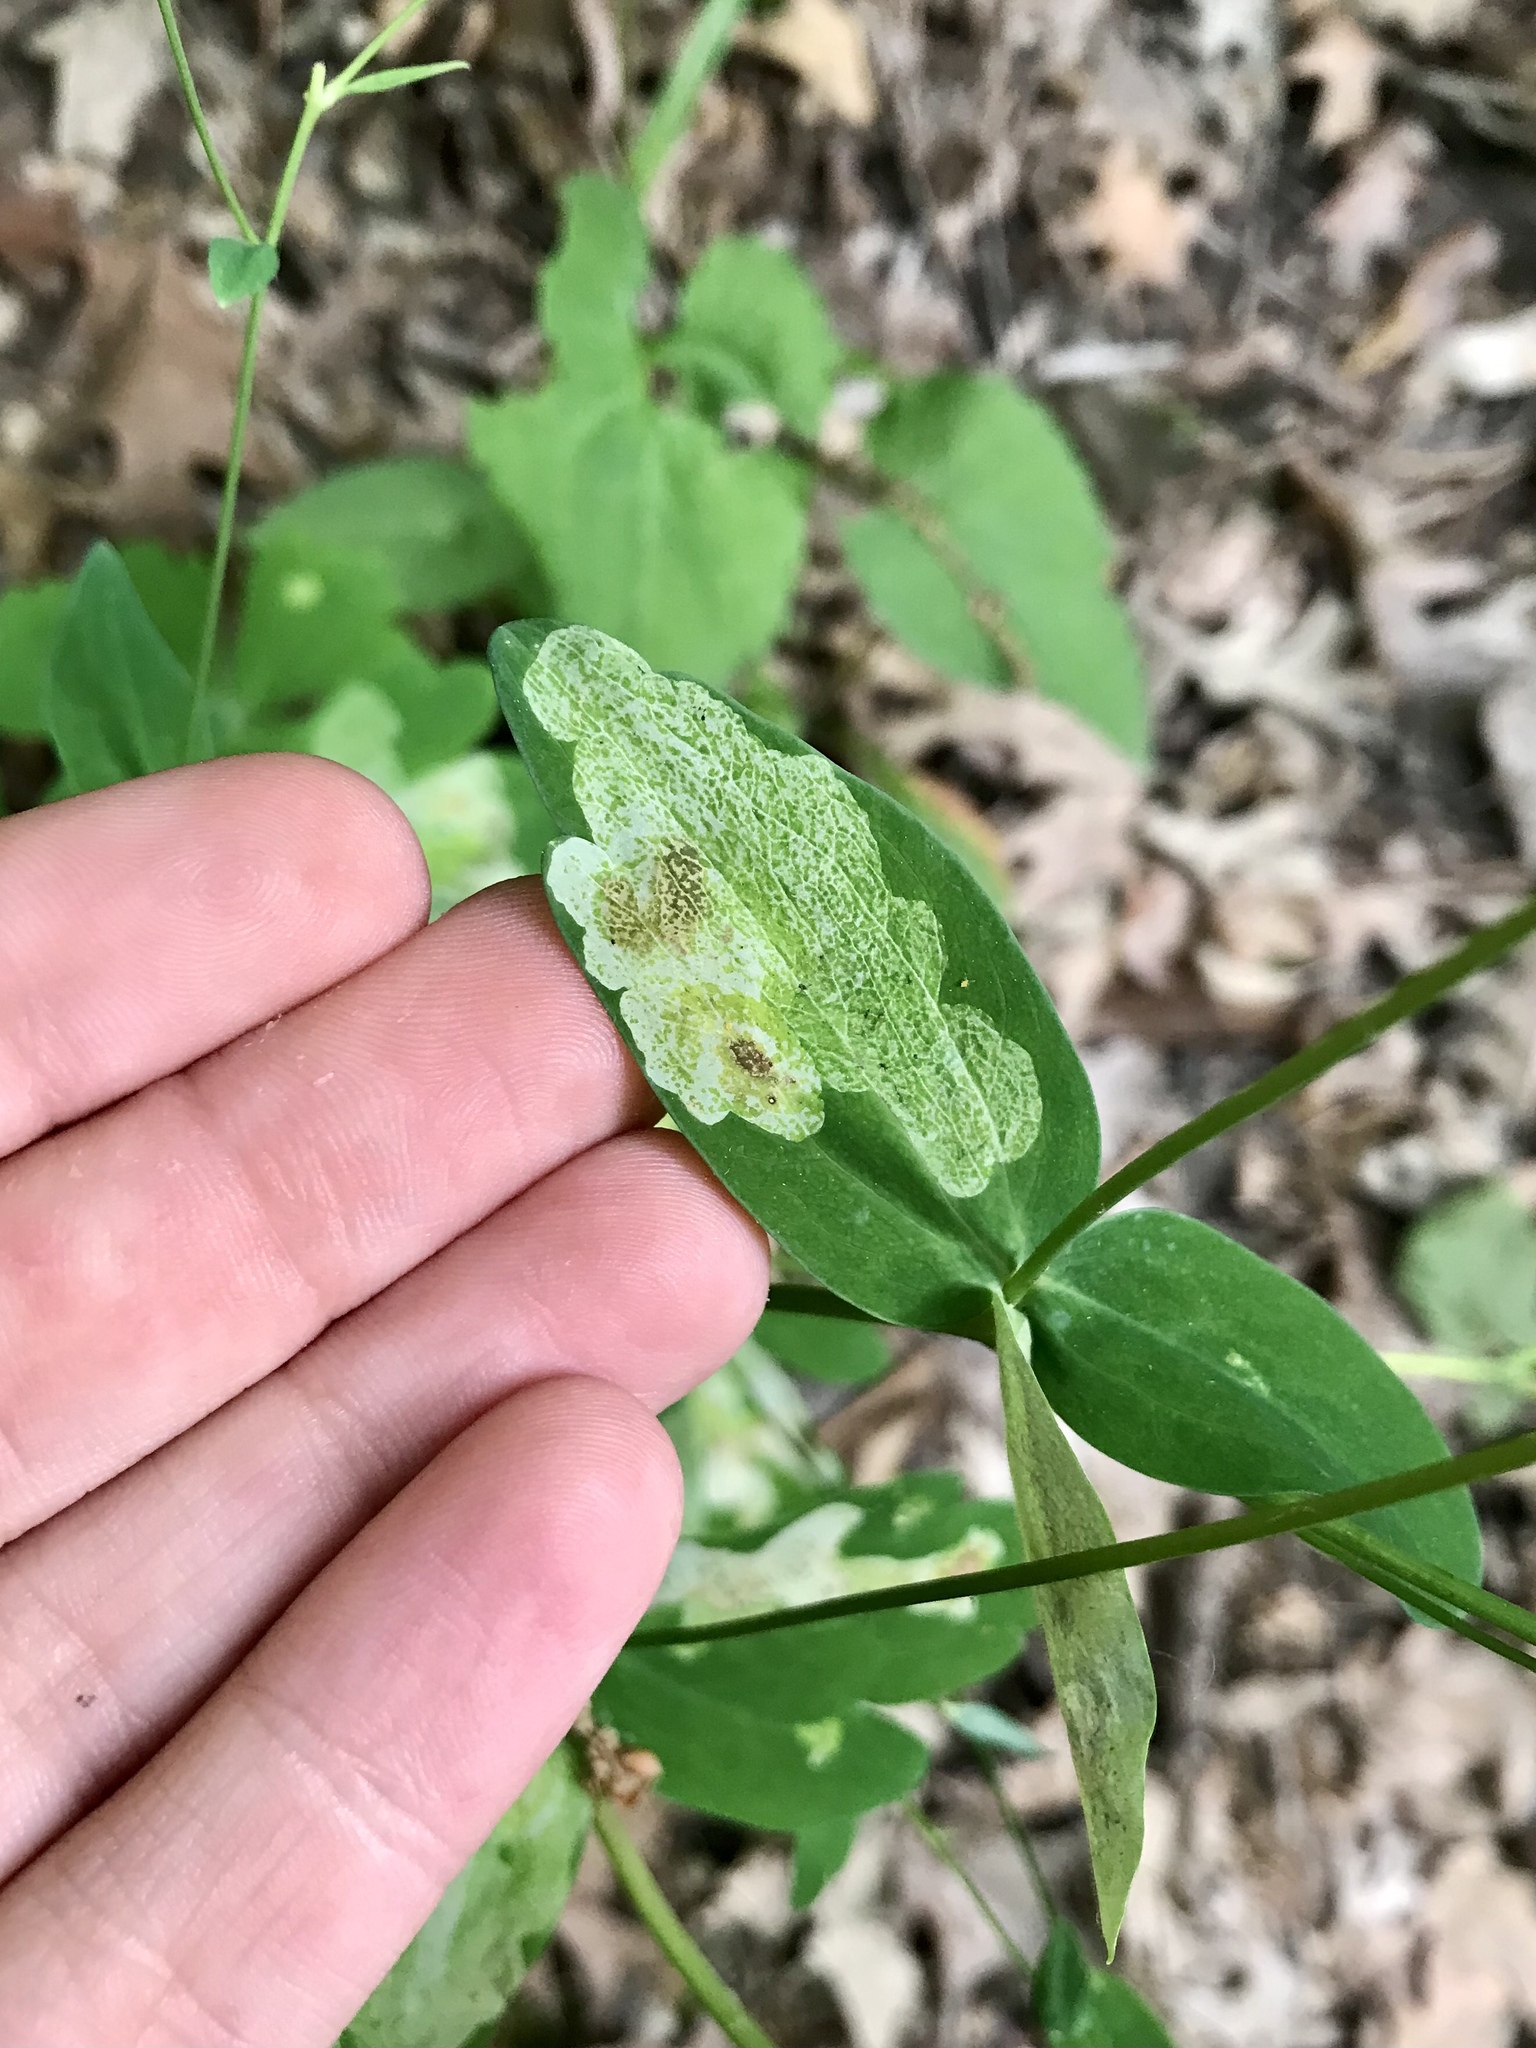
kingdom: Animalia
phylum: Arthropoda
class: Insecta
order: Diptera
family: Agromyzidae
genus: Phytomyza
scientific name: Phytomyza aquilegiana
